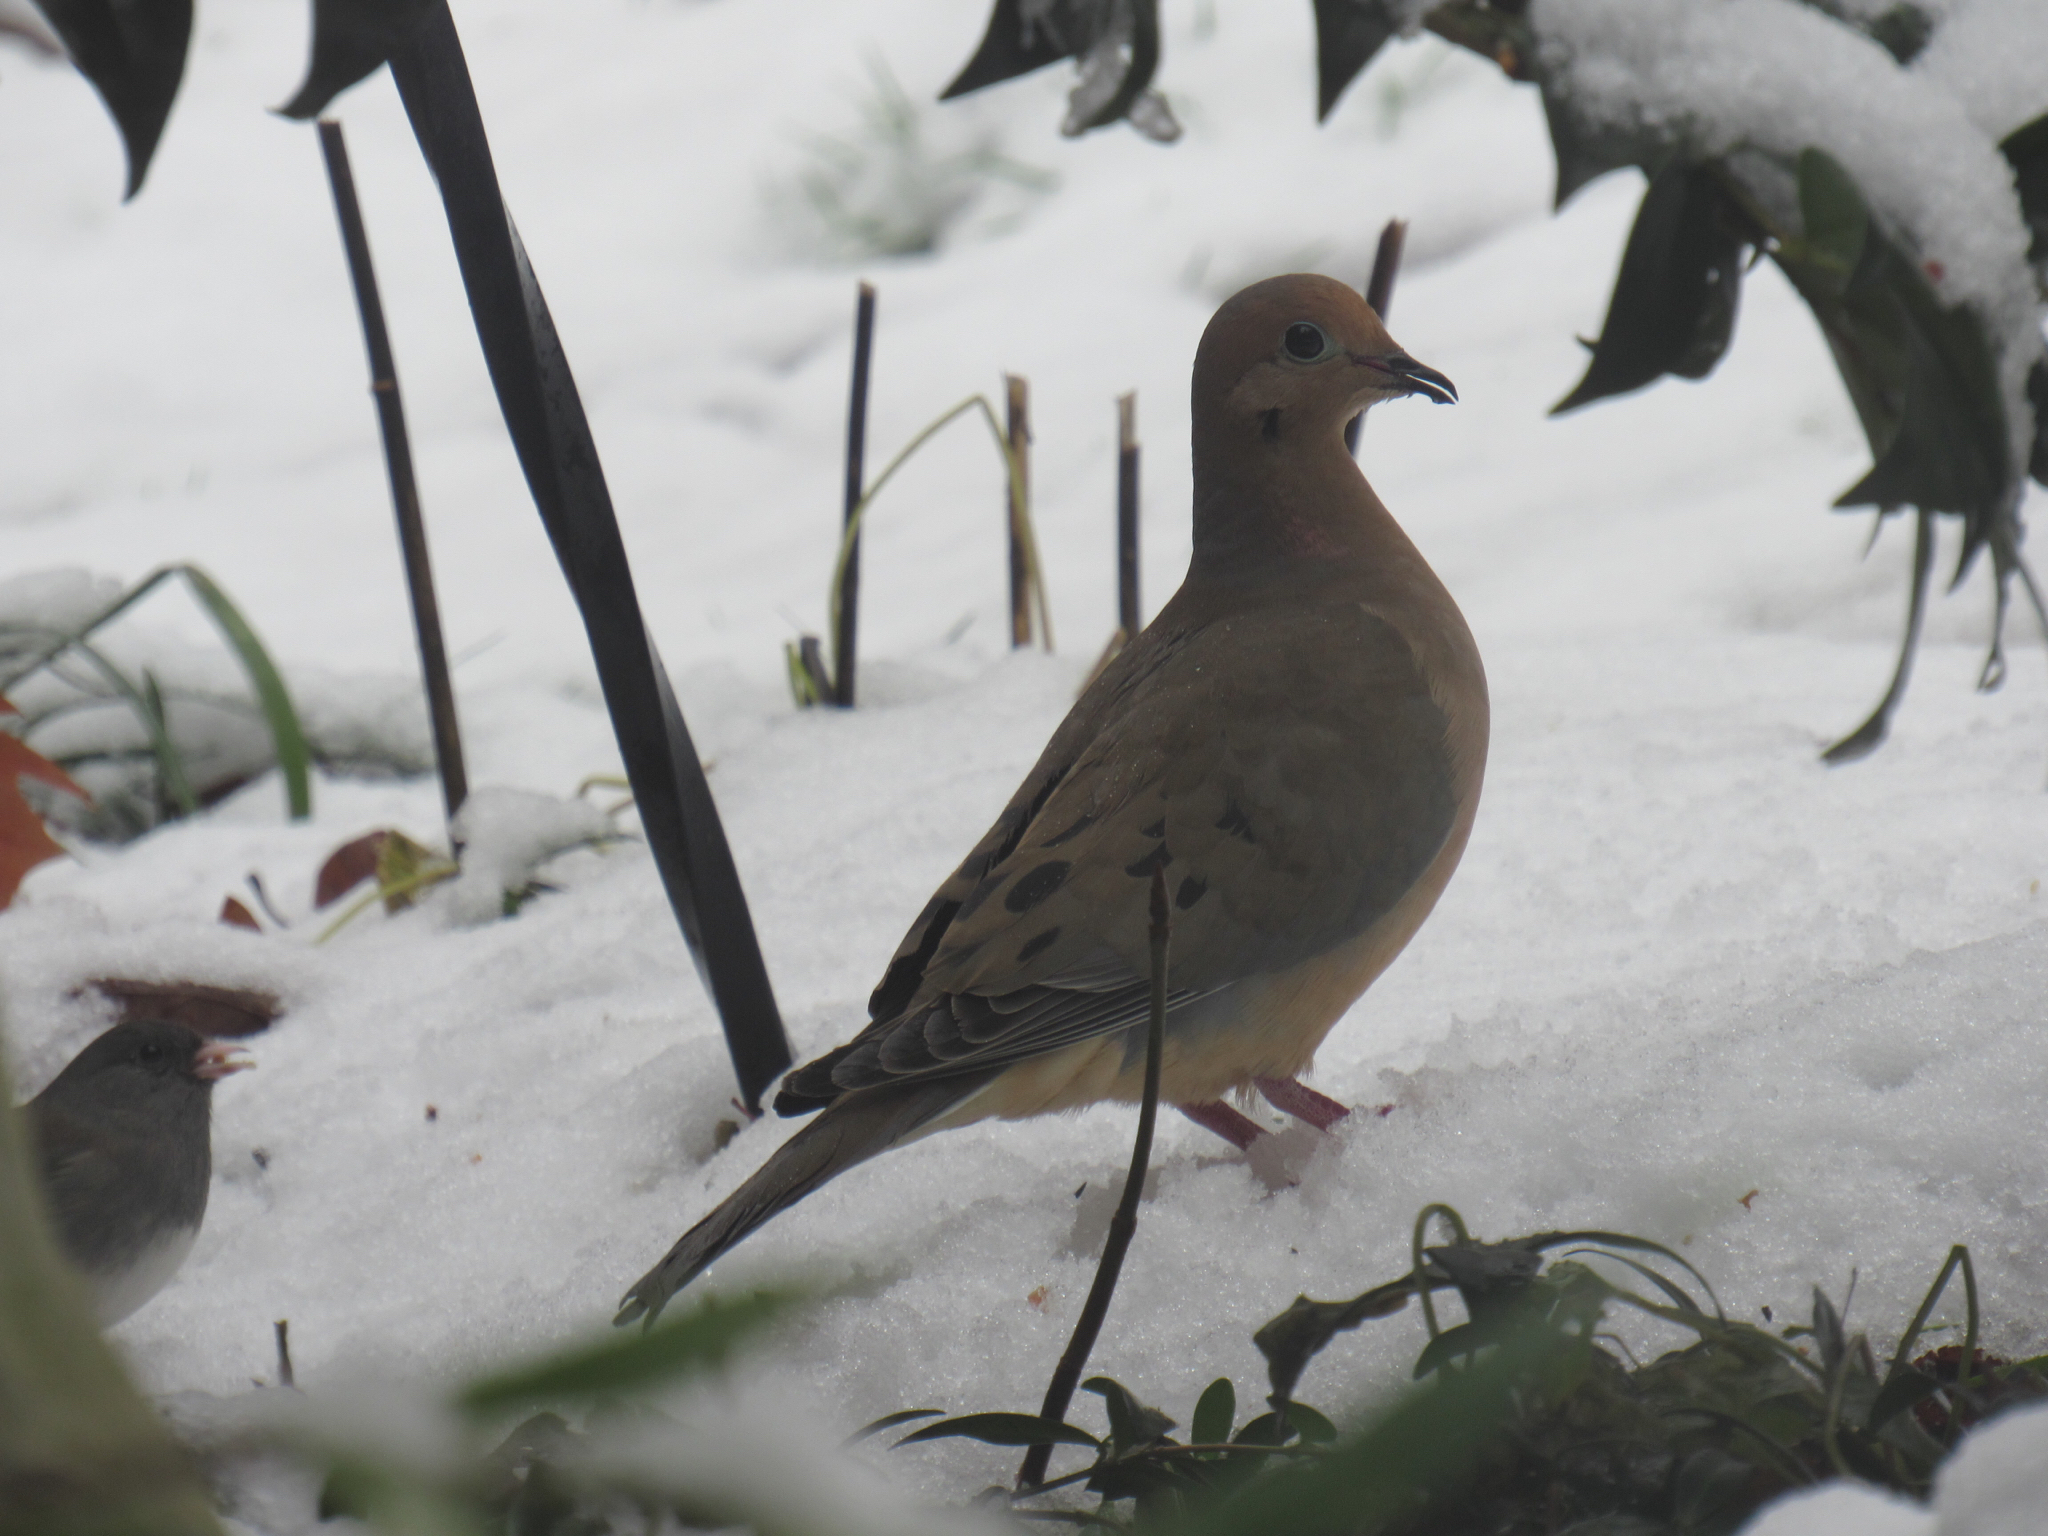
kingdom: Animalia
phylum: Chordata
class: Aves
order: Columbiformes
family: Columbidae
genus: Zenaida
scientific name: Zenaida macroura
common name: Mourning dove
